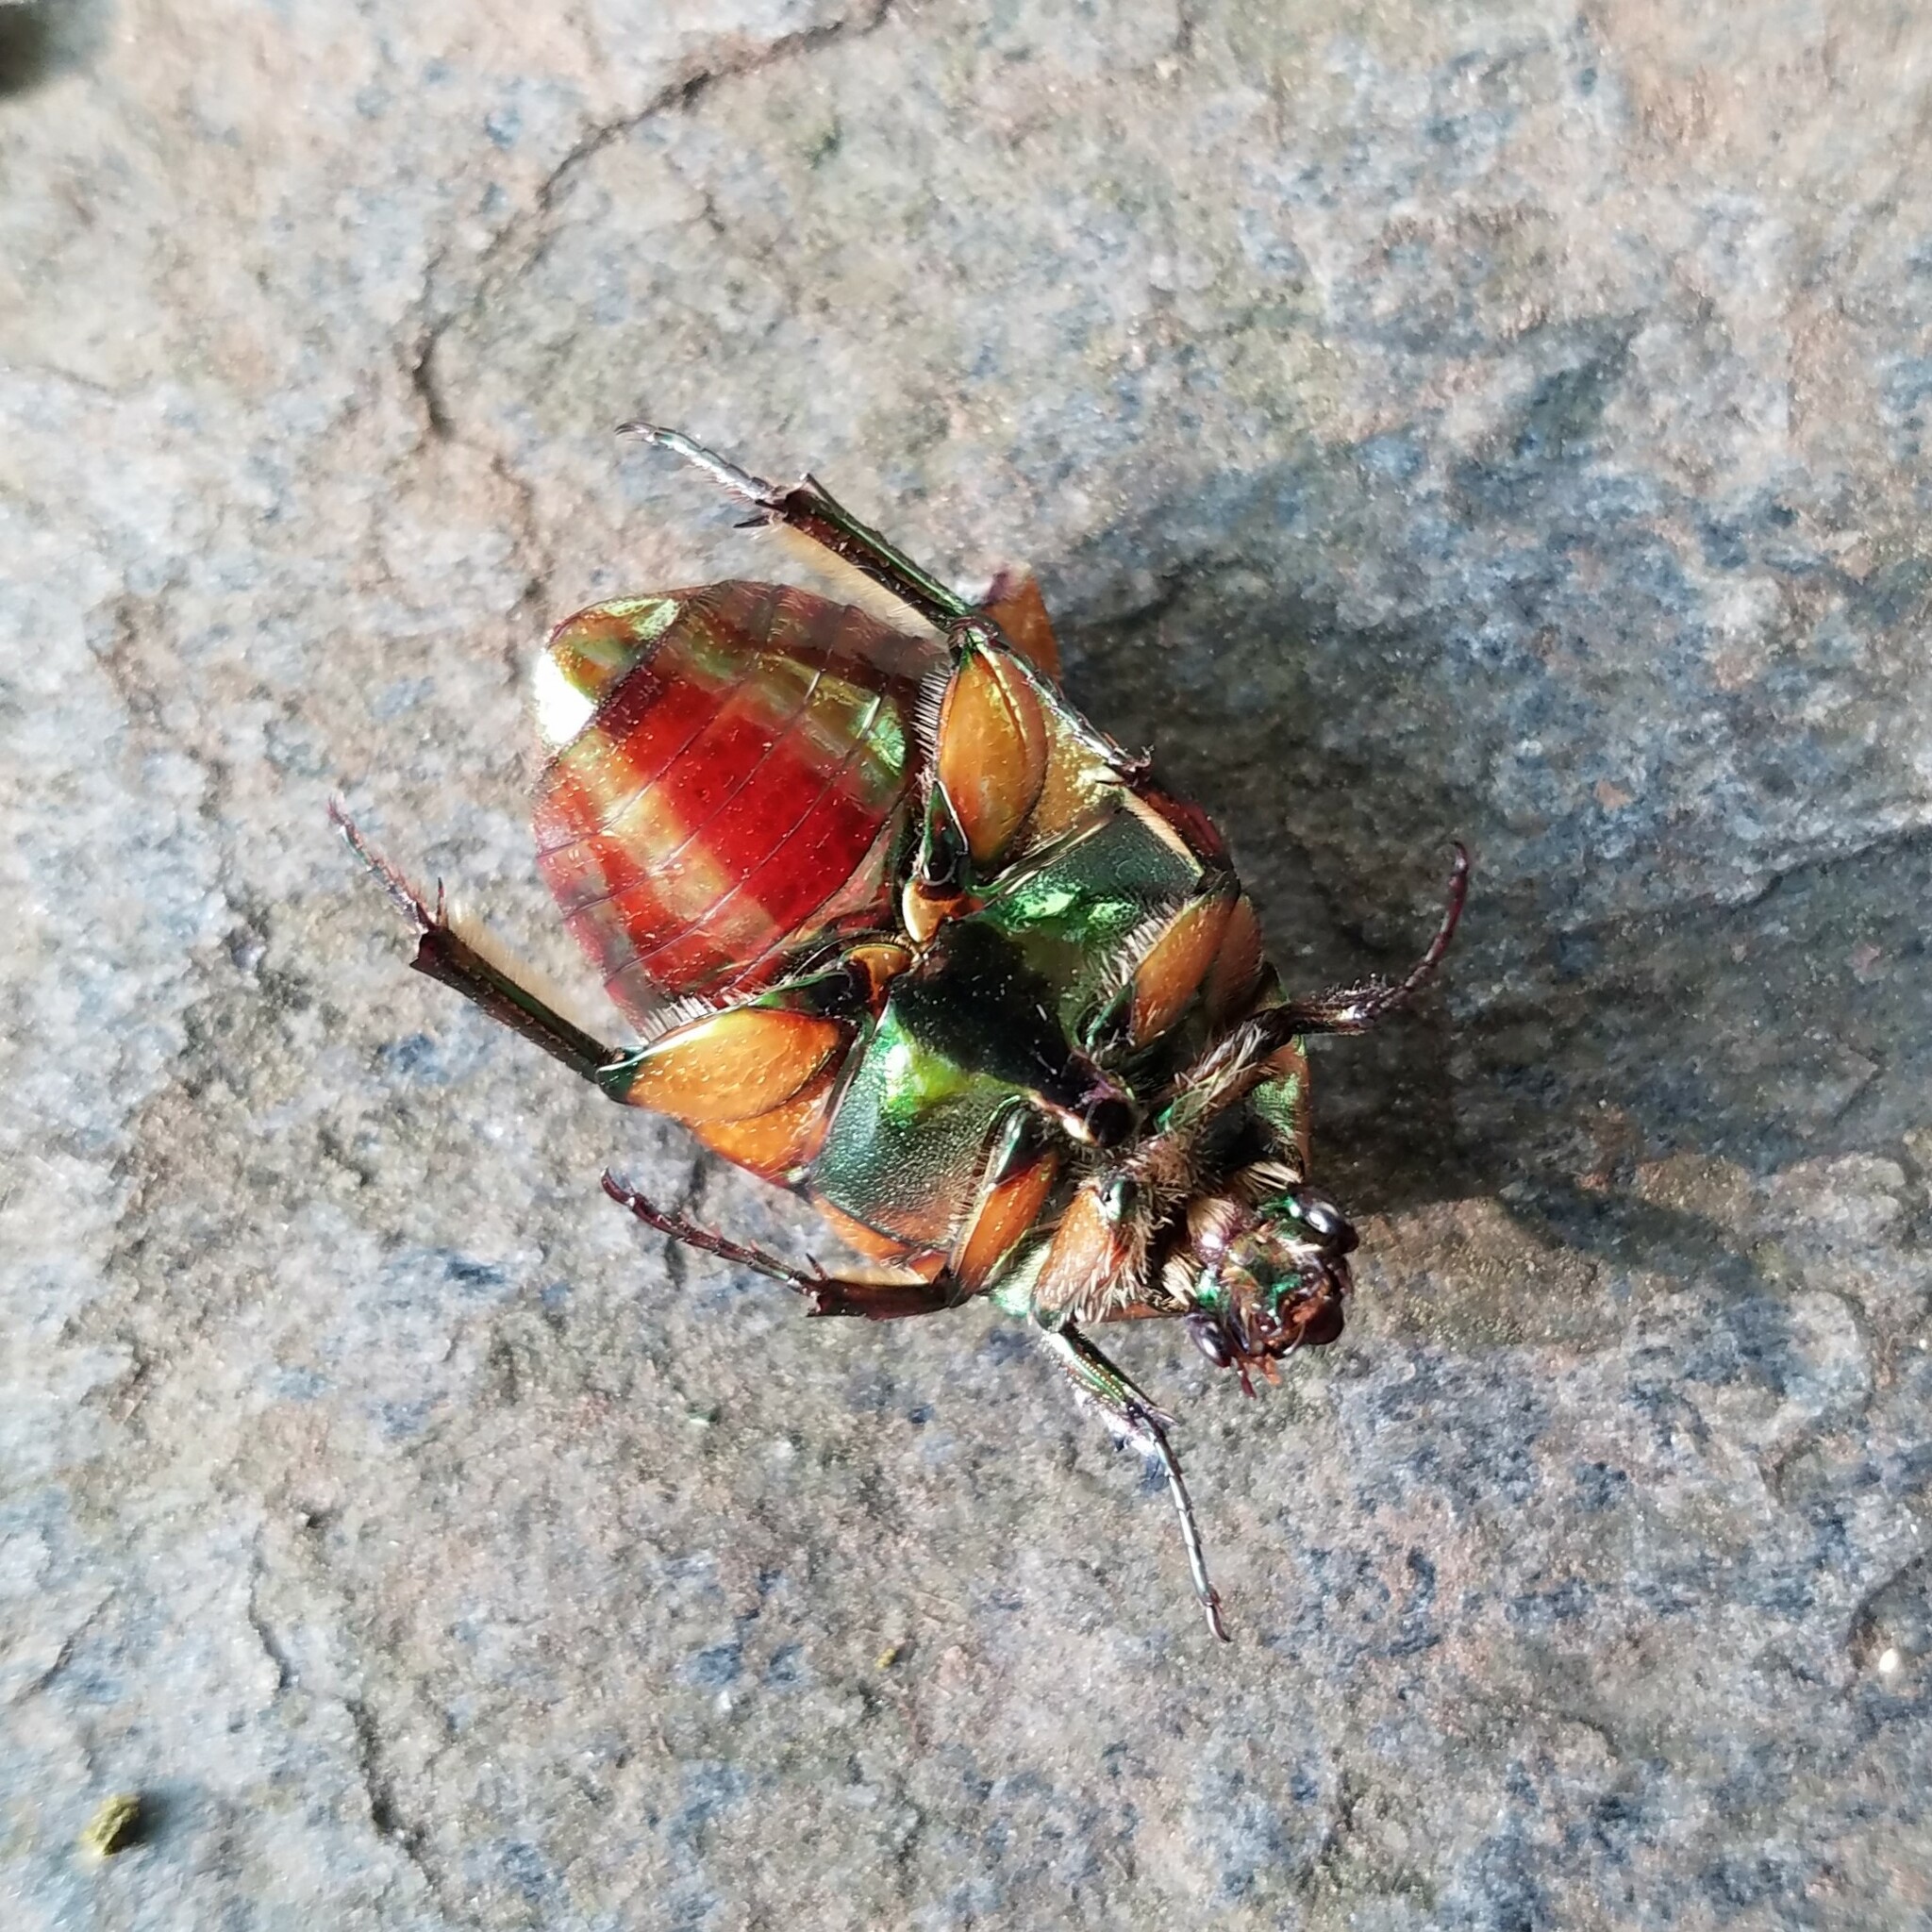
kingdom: Animalia
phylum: Arthropoda
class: Insecta
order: Coleoptera
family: Scarabaeidae
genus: Cotinis
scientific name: Cotinis nitida
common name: Common green june beetle
